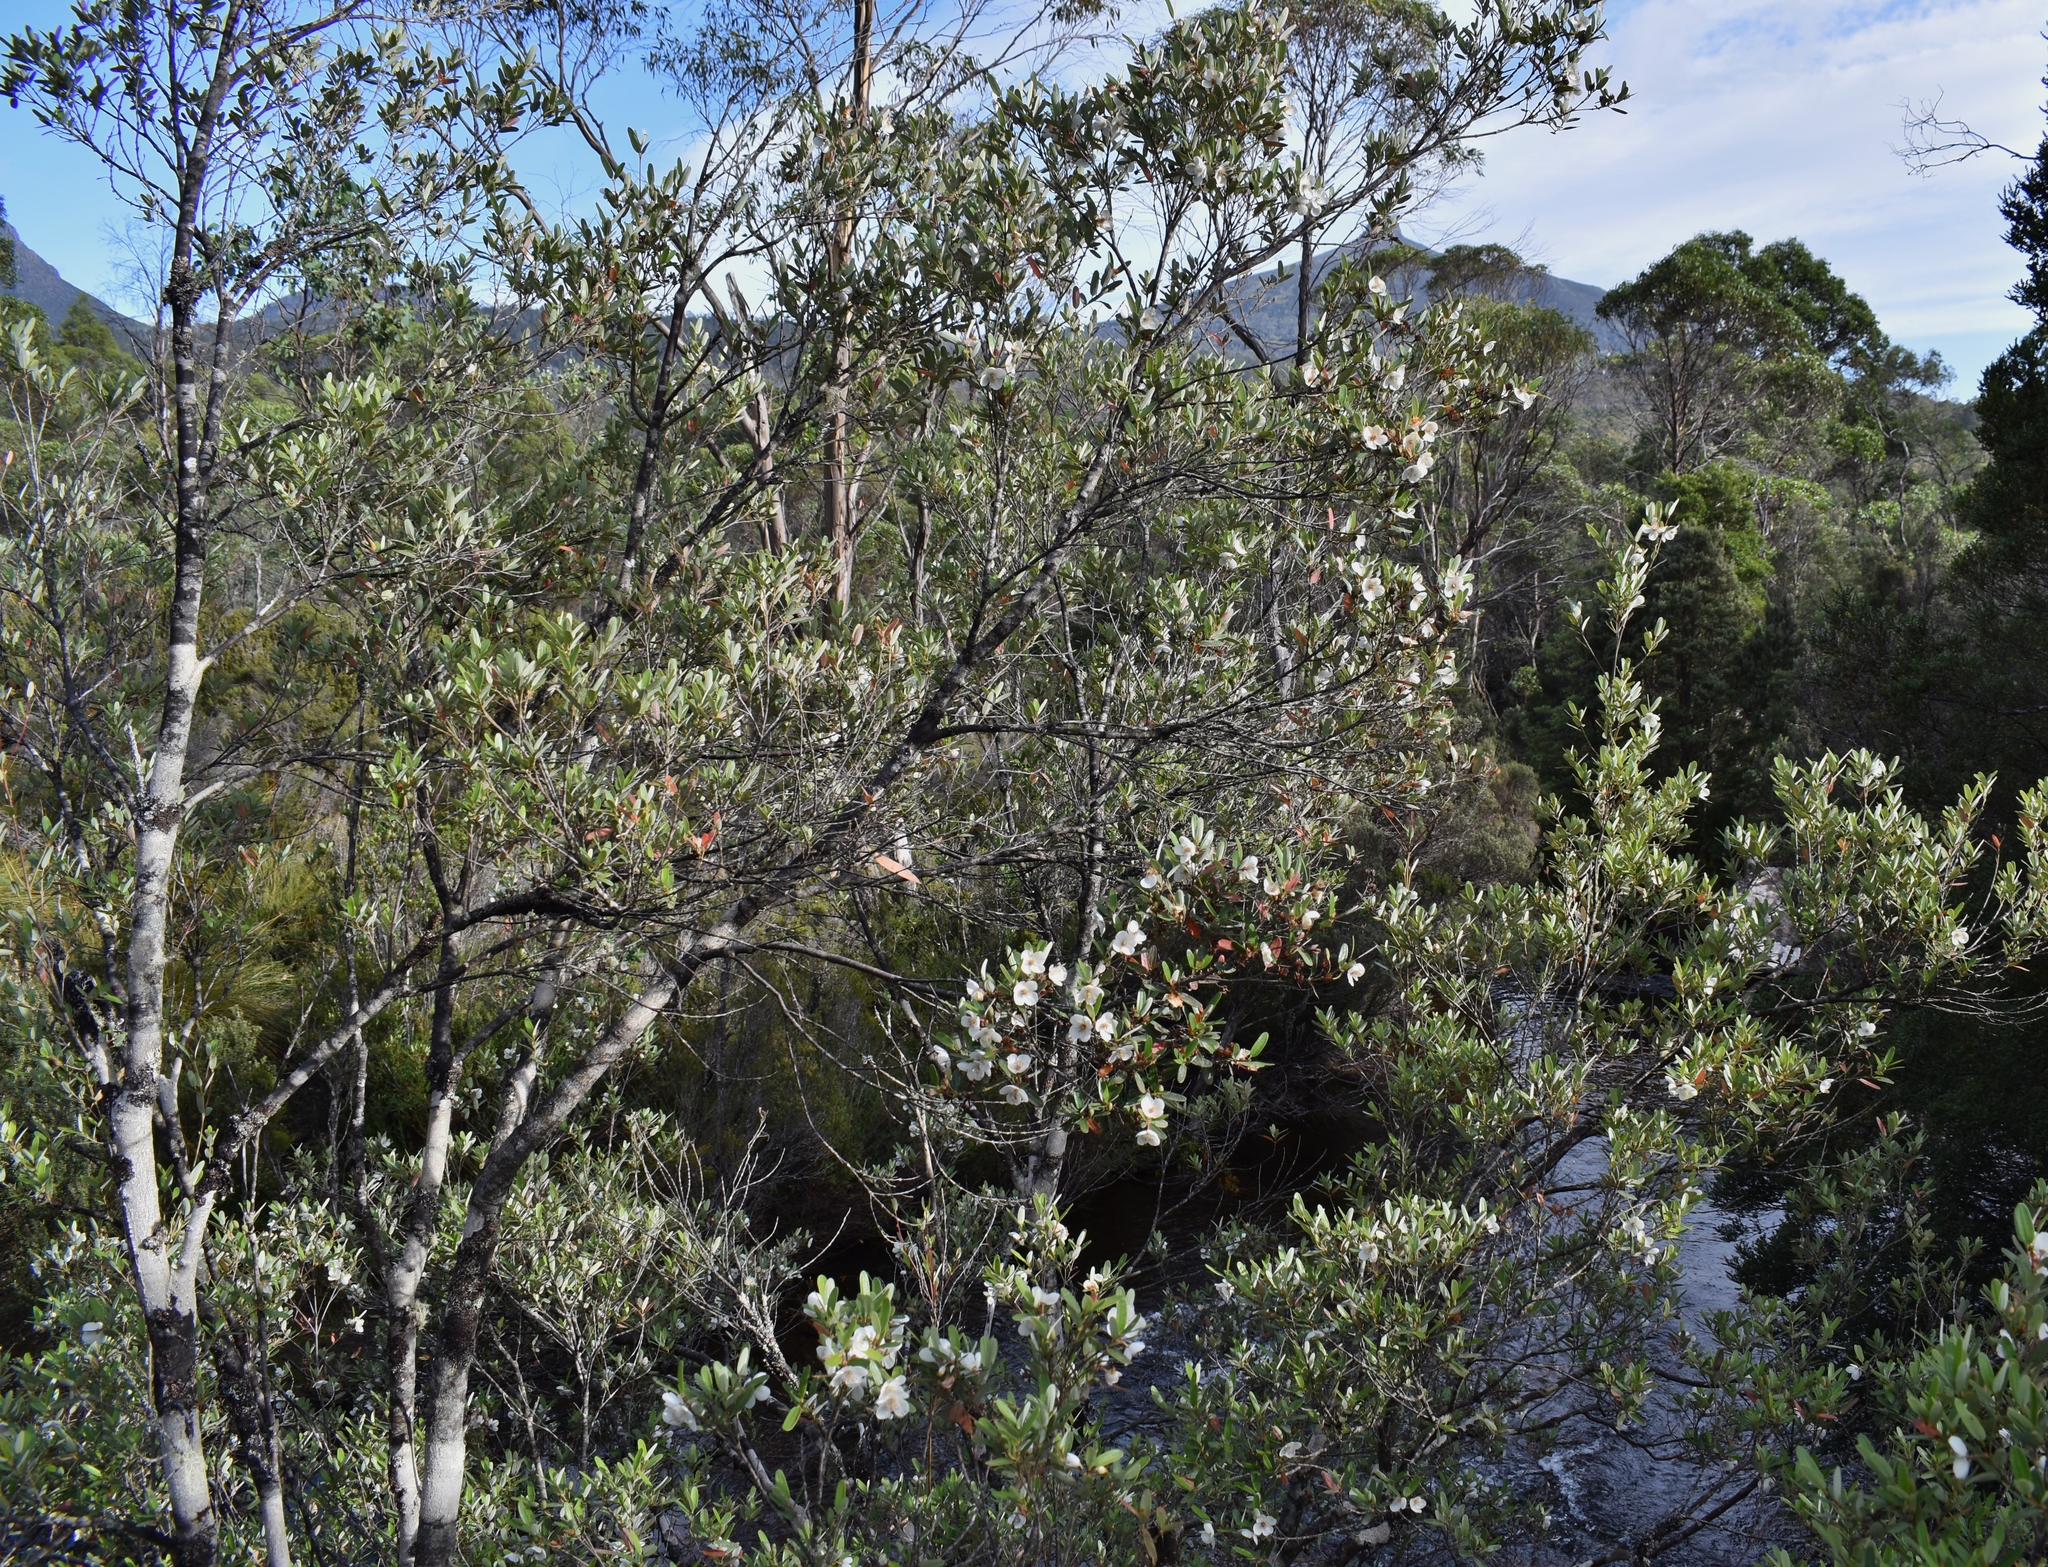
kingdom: Plantae
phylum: Tracheophyta
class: Magnoliopsida
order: Oxalidales
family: Cunoniaceae
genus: Eucryphia
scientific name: Eucryphia lucida
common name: Leatherwood
